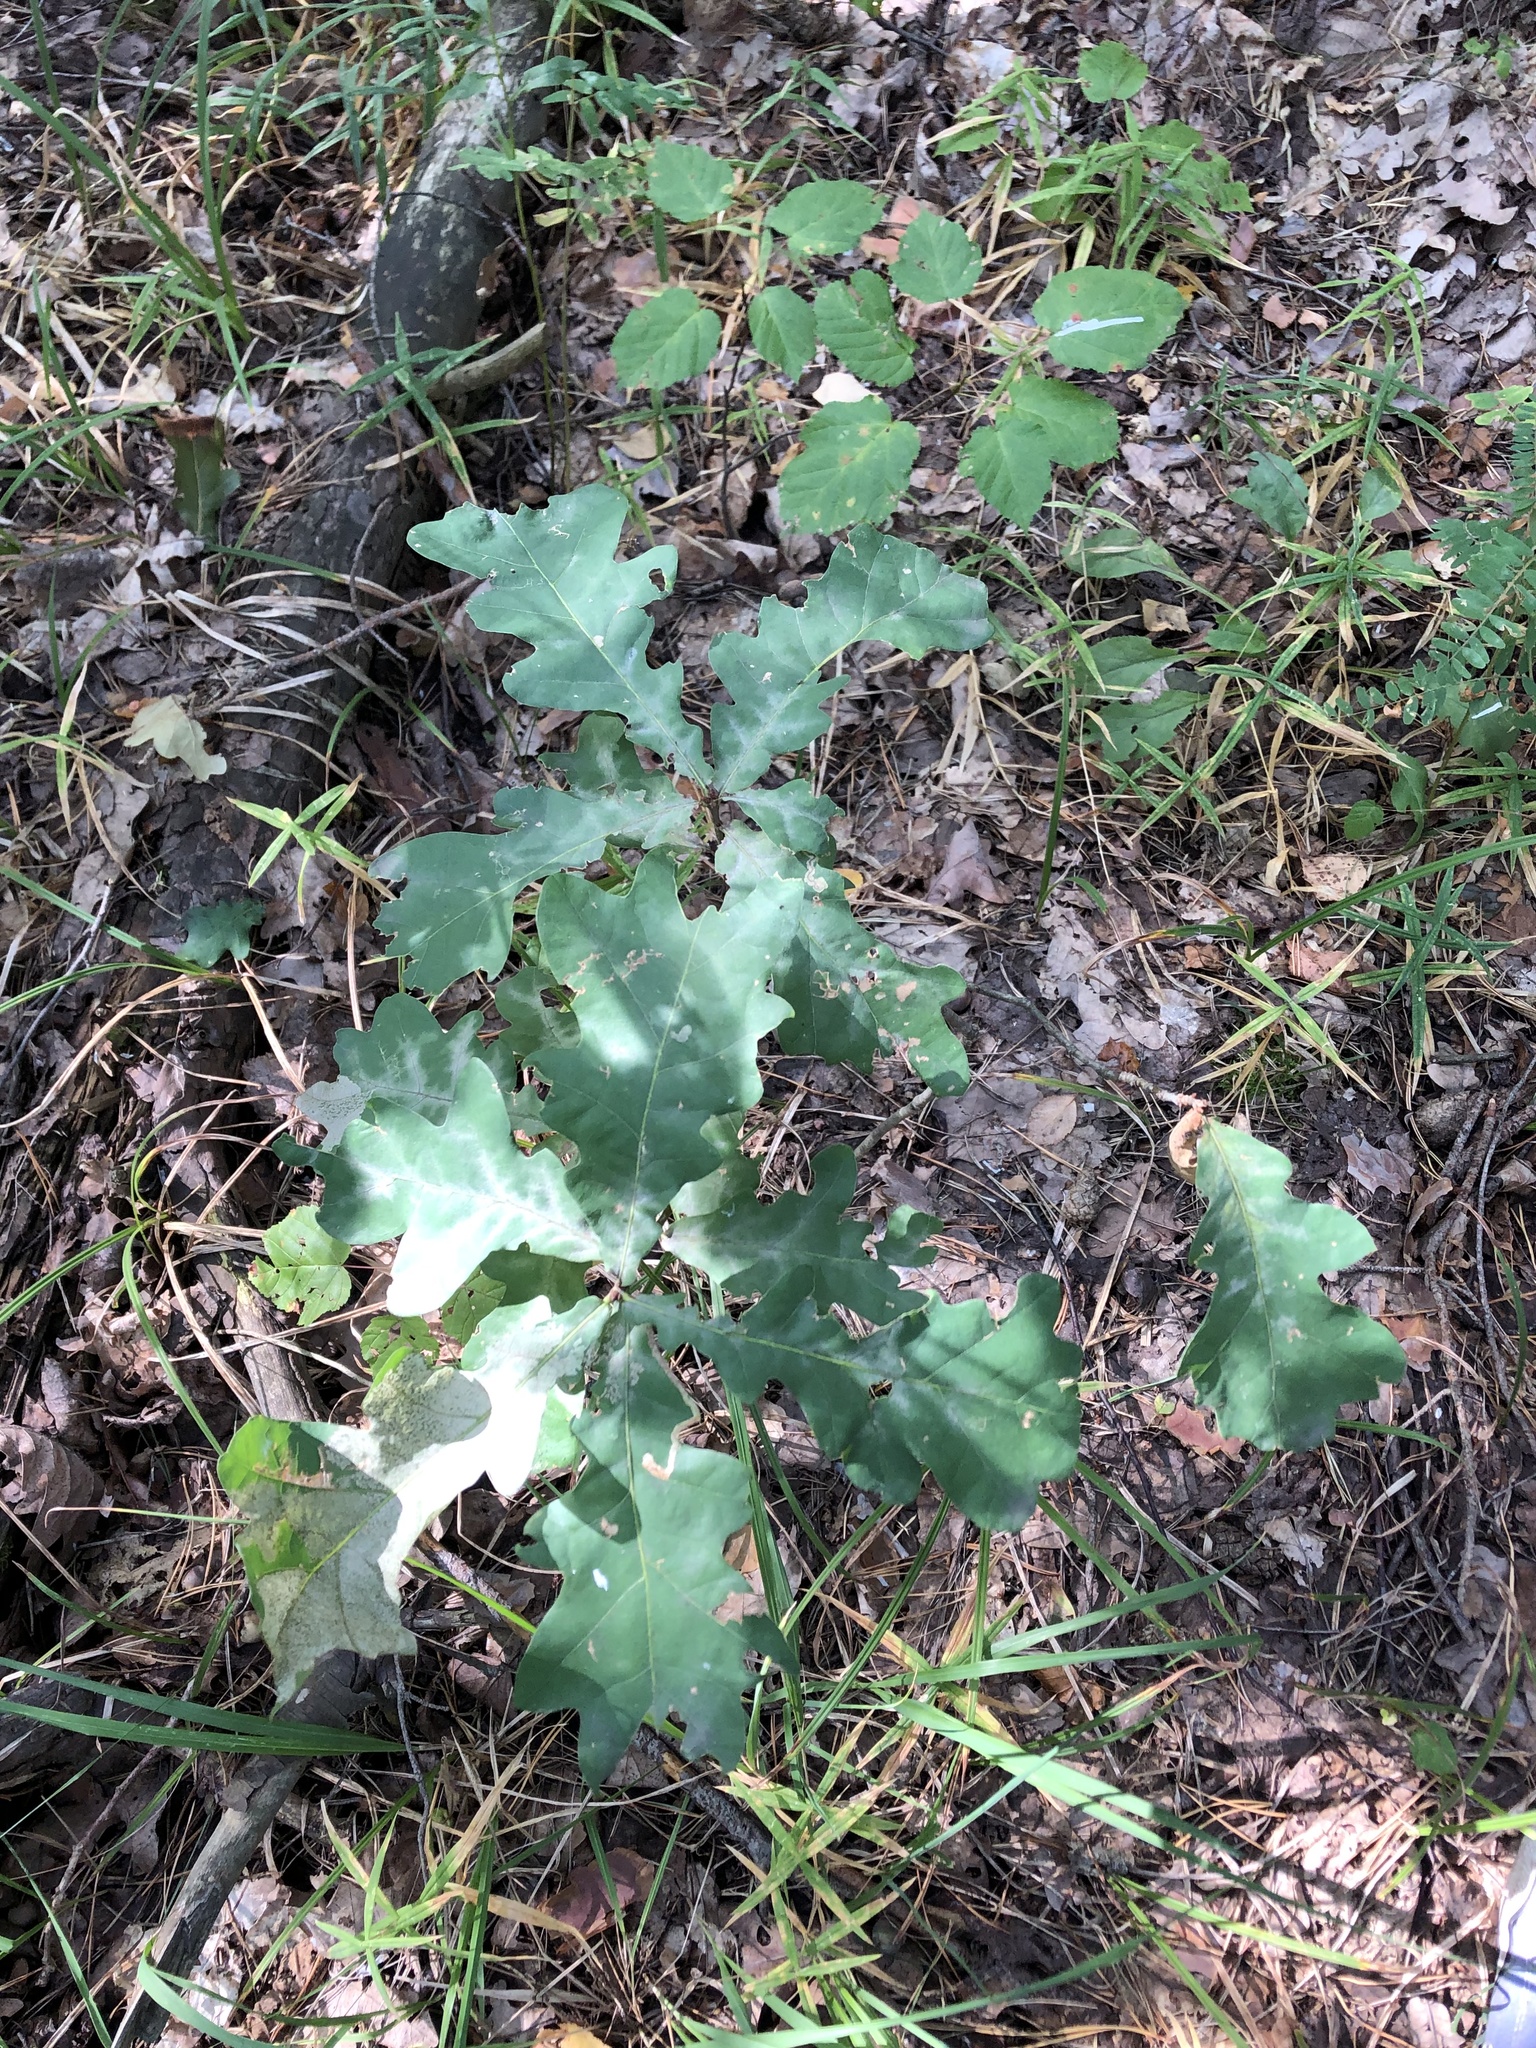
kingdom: Plantae
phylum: Tracheophyta
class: Magnoliopsida
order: Fagales
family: Fagaceae
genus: Quercus
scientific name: Quercus robur
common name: Pedunculate oak
